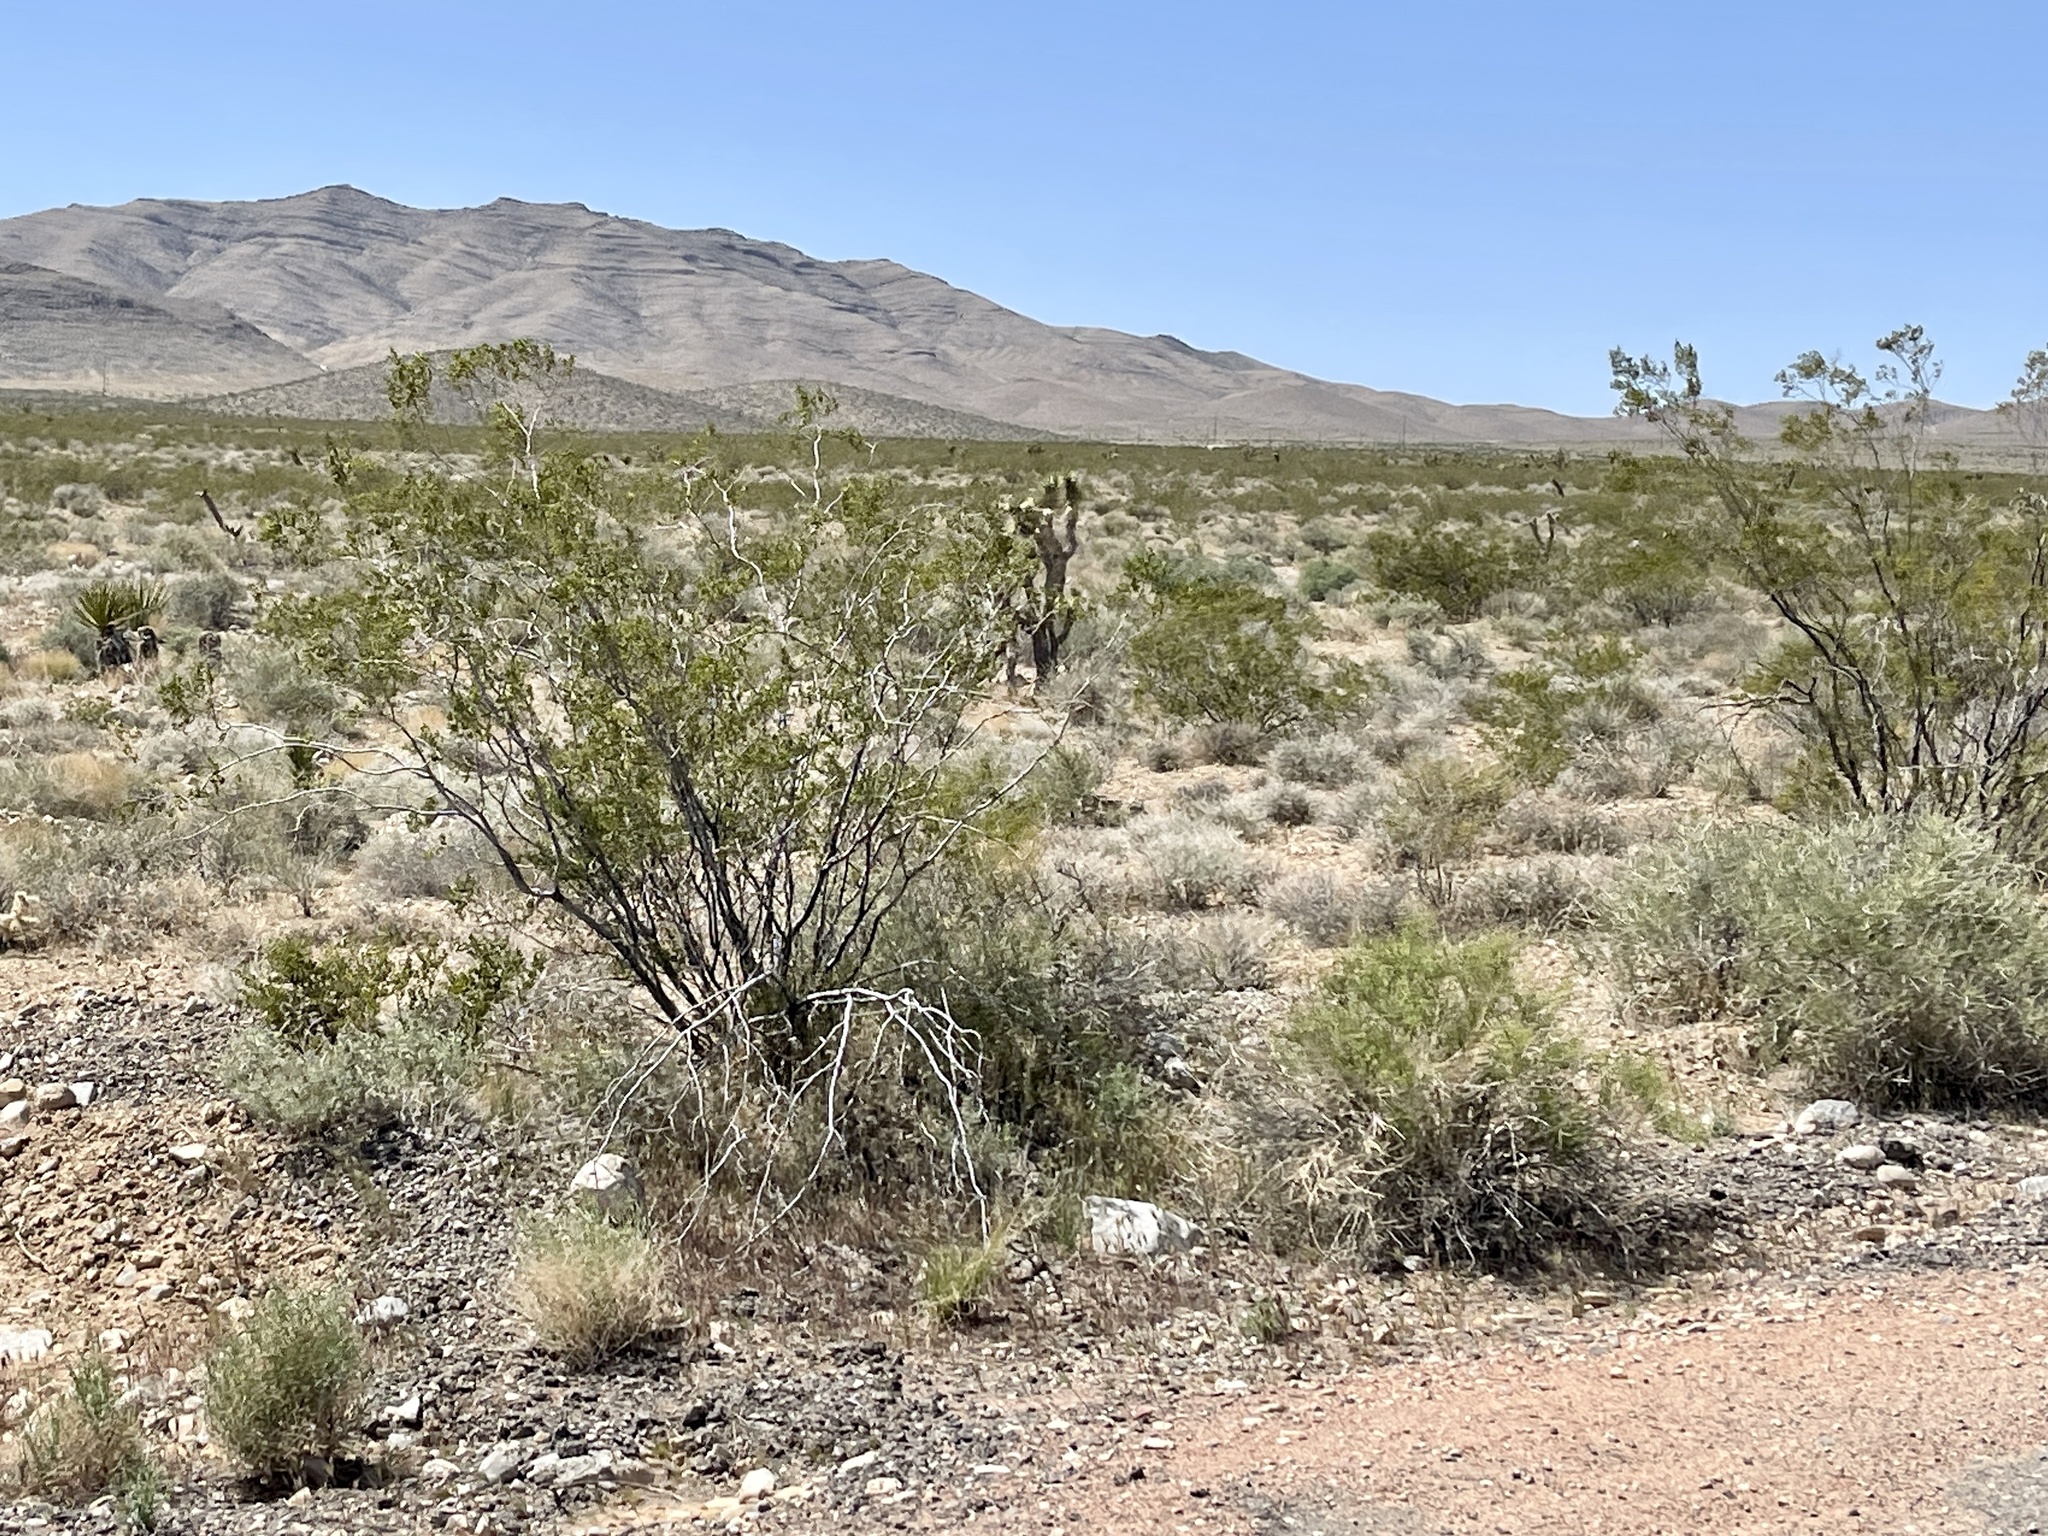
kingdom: Plantae
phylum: Tracheophyta
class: Magnoliopsida
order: Zygophyllales
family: Zygophyllaceae
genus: Larrea
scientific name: Larrea tridentata
